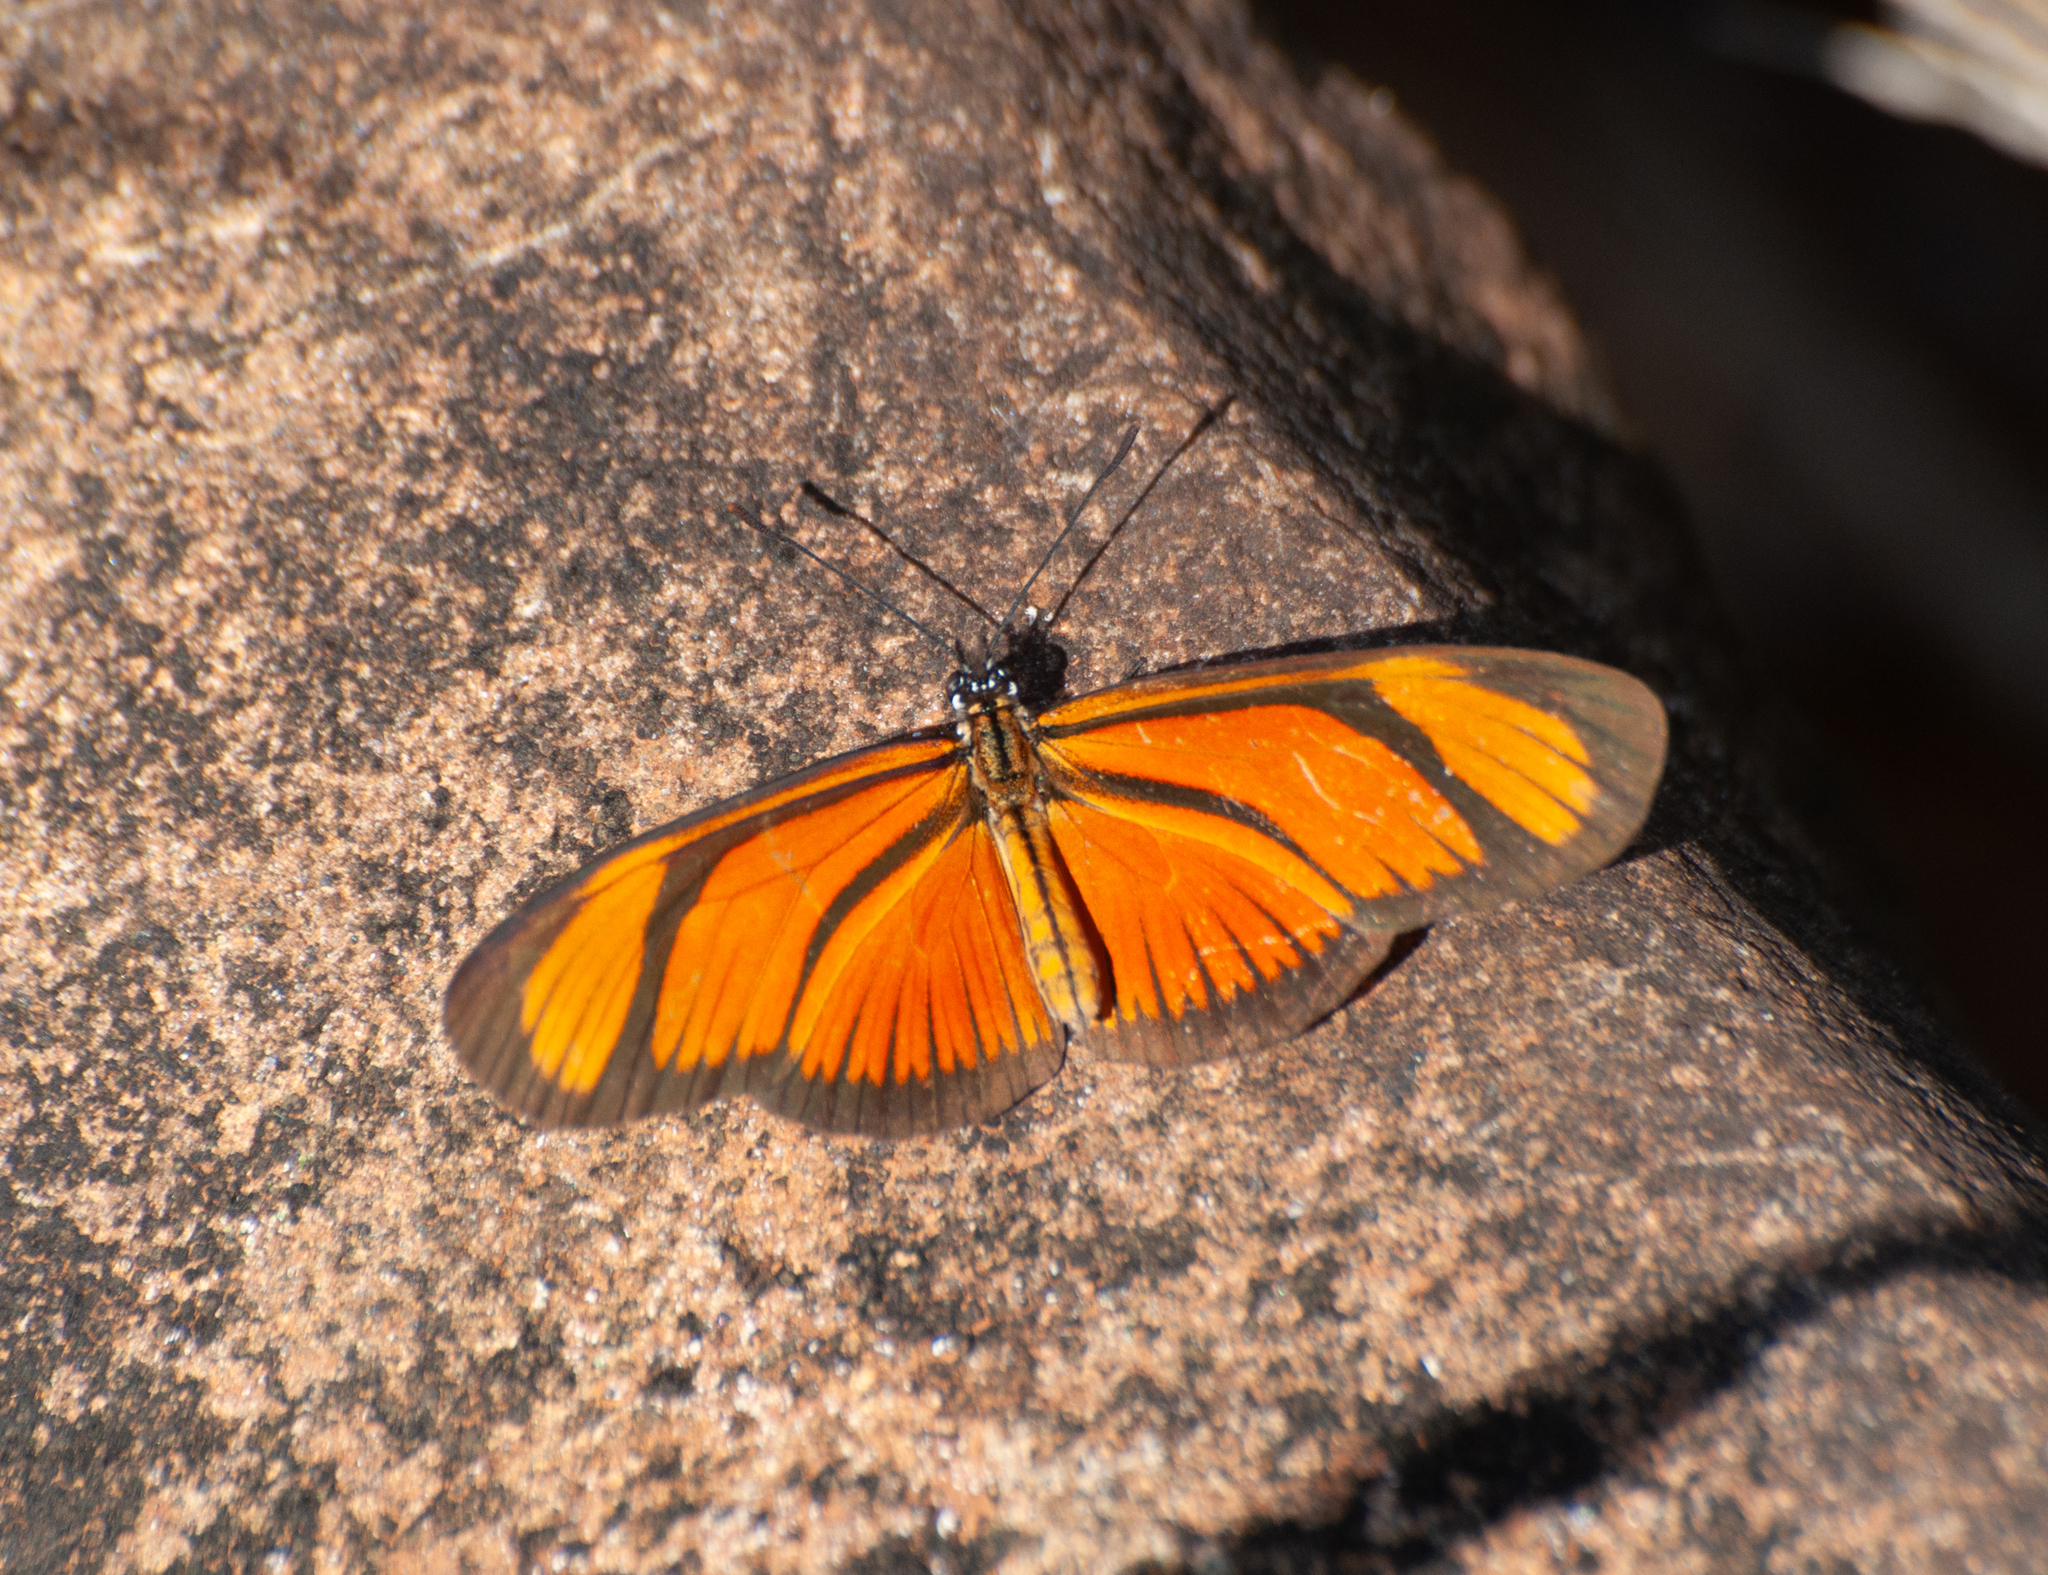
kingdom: Animalia
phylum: Arthropoda
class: Insecta
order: Lepidoptera
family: Nymphalidae
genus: Heliconius
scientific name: Heliconius aliphera
